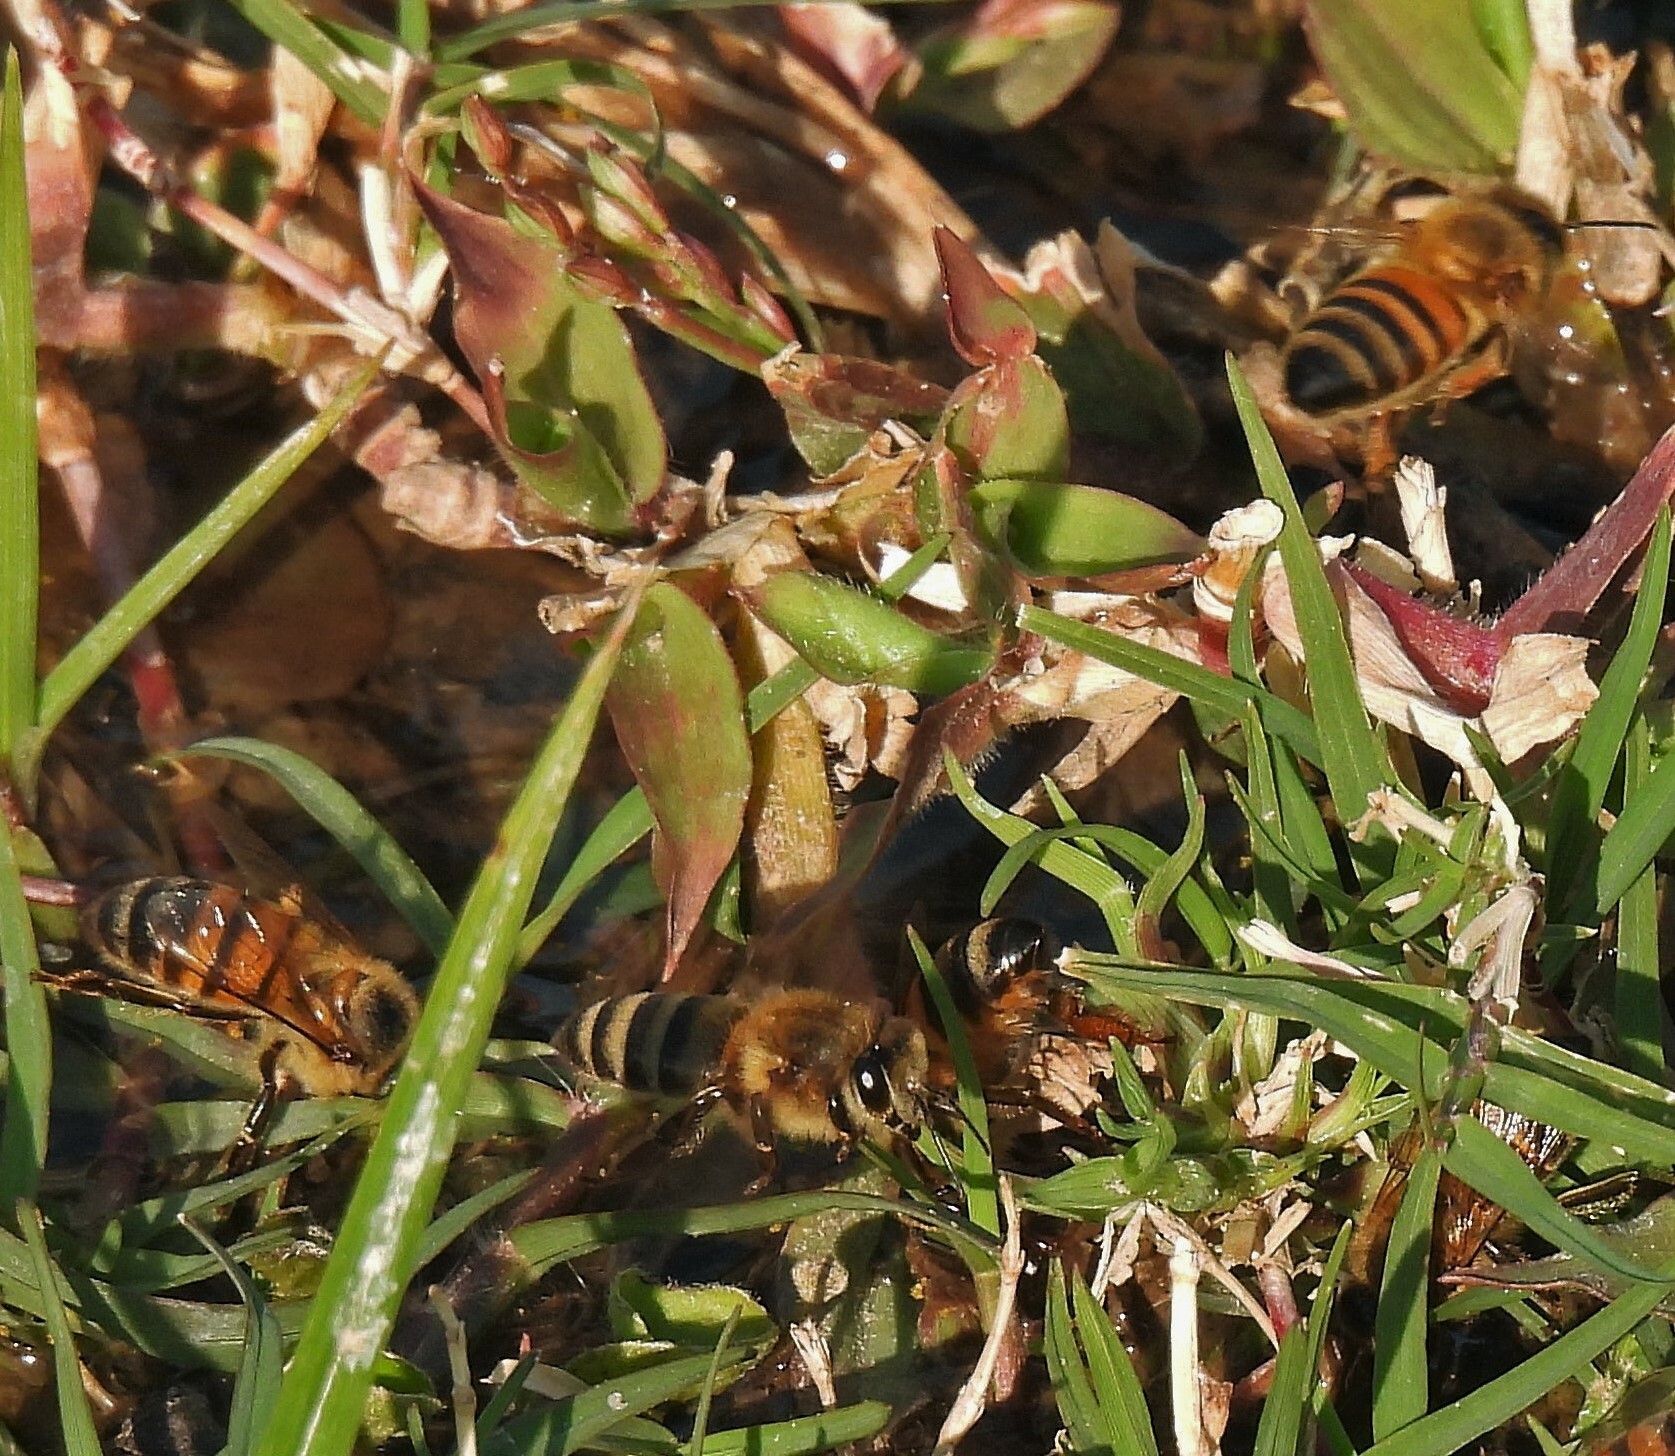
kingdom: Animalia
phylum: Arthropoda
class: Insecta
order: Hymenoptera
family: Apidae
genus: Apis
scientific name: Apis mellifera
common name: Honey bee
